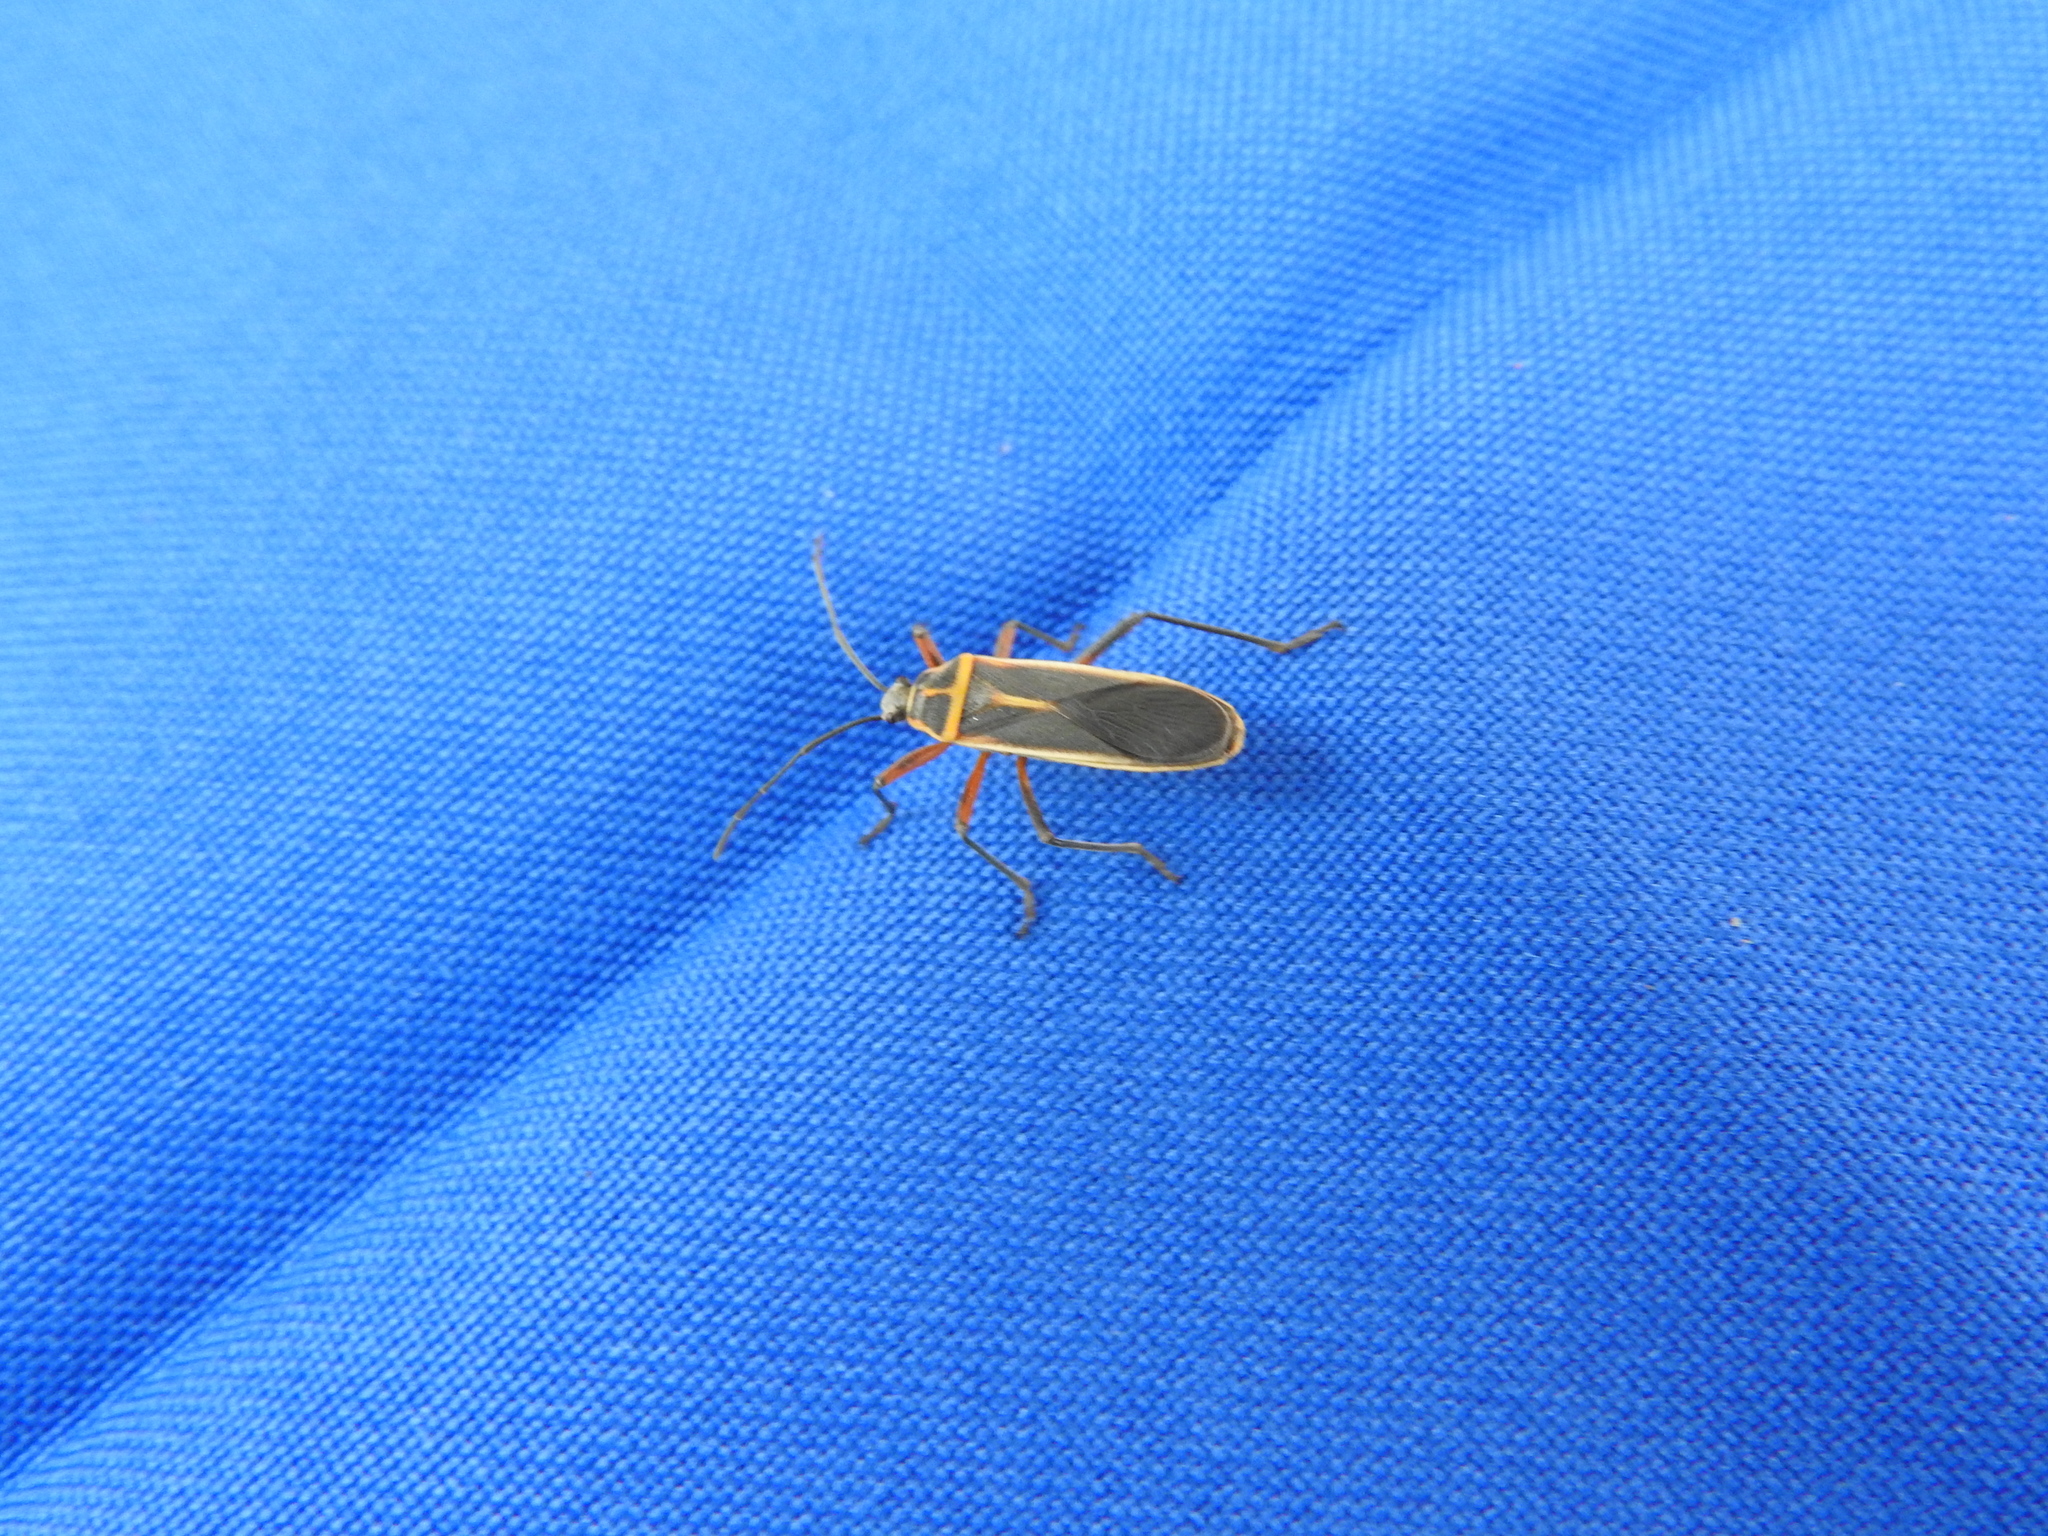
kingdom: Animalia
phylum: Arthropoda
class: Insecta
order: Hemiptera
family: Largidae
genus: Stenomacra
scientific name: Stenomacra marginella
